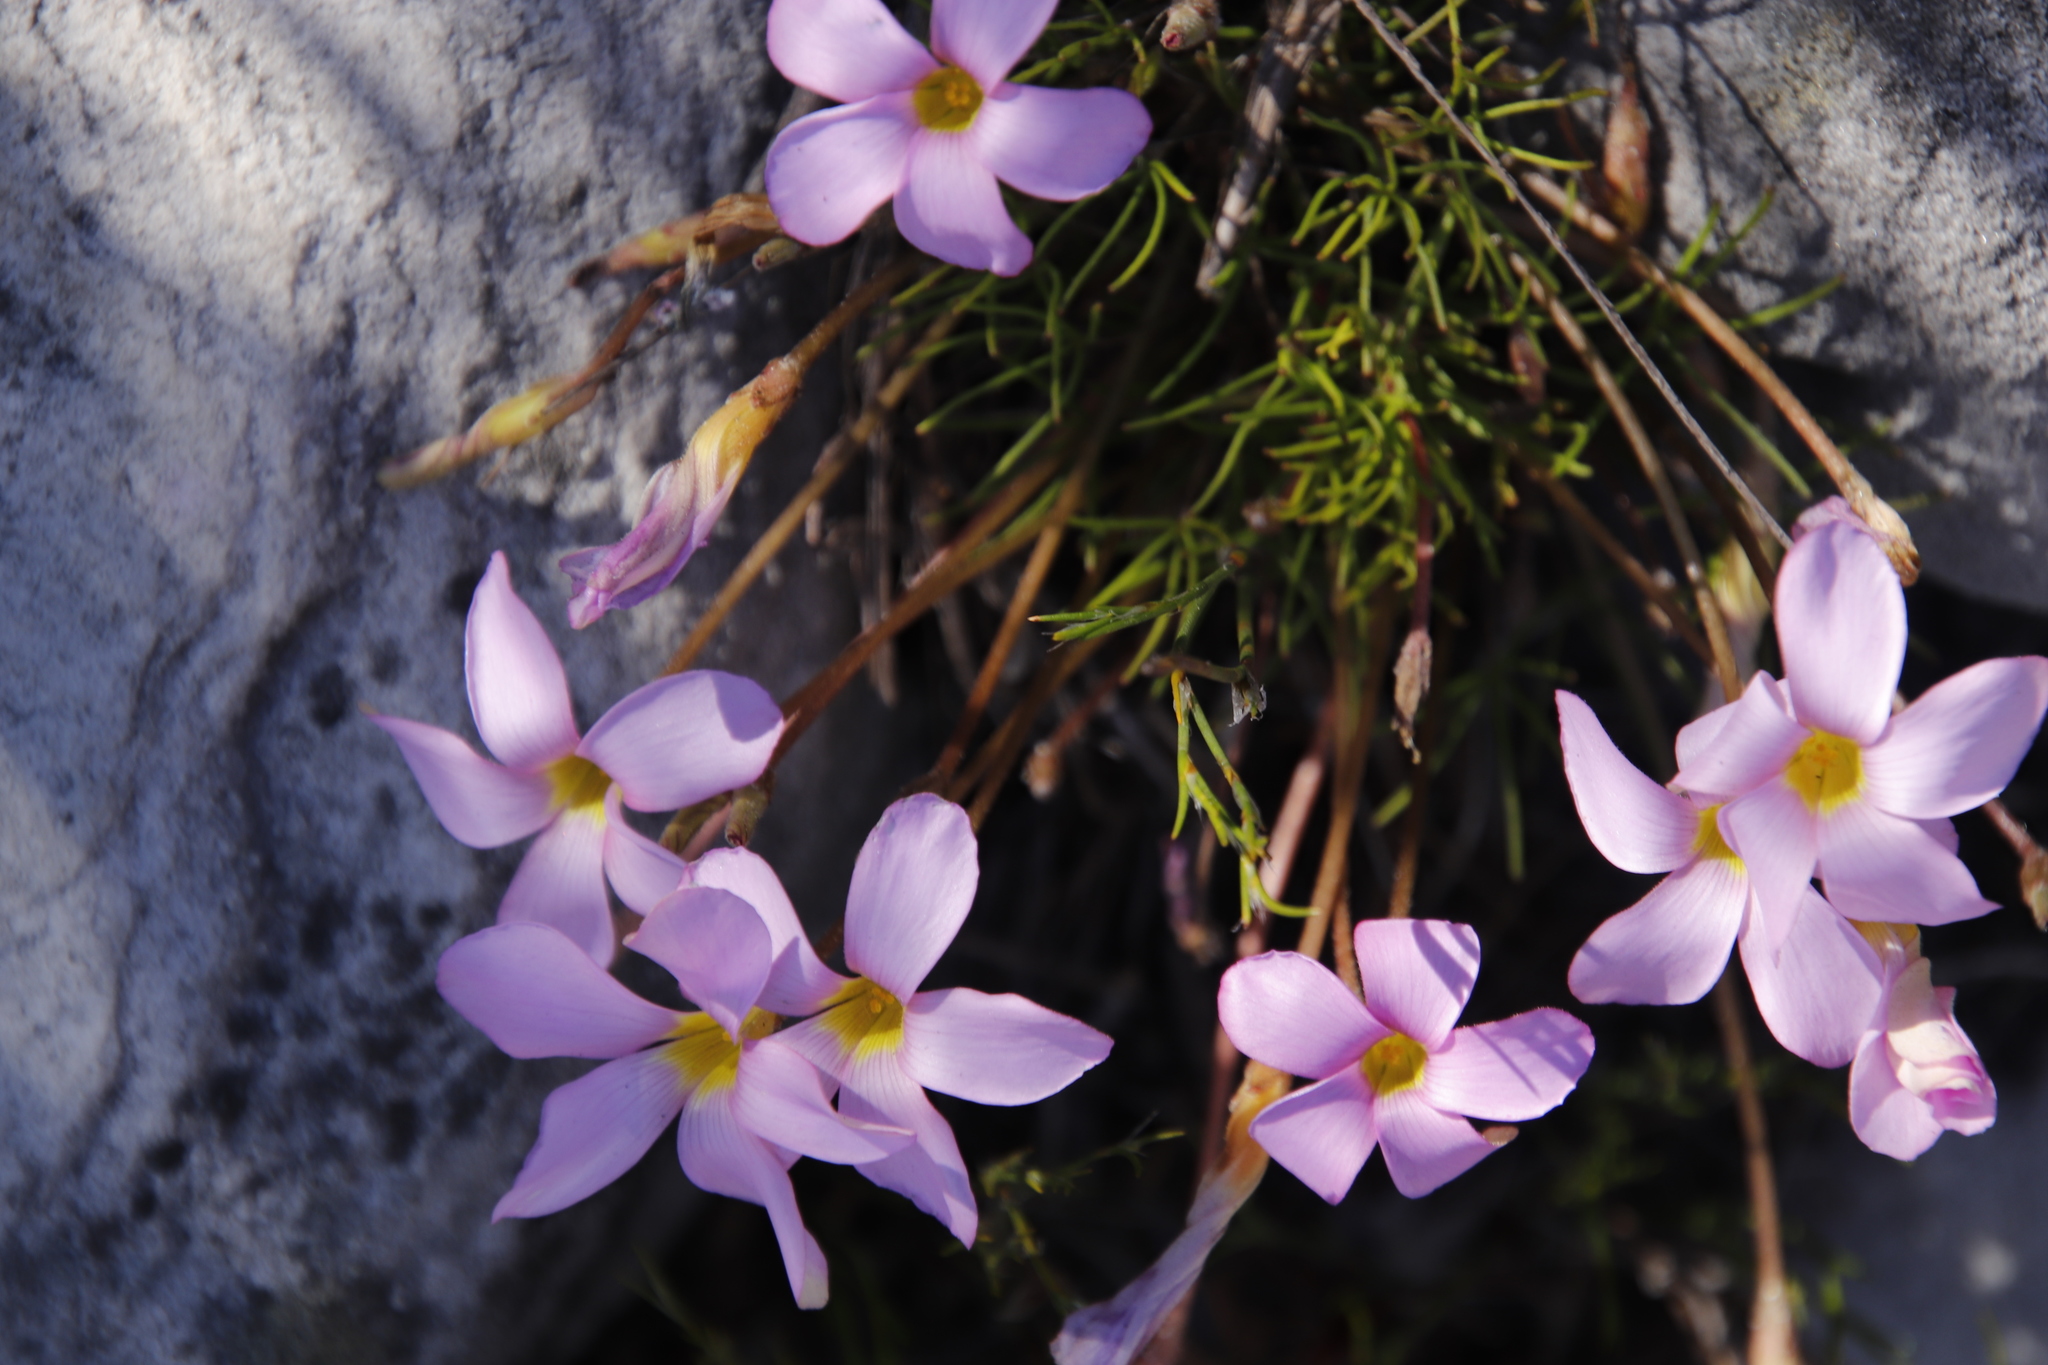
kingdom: Plantae
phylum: Tracheophyta
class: Magnoliopsida
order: Oxalidales
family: Oxalidaceae
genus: Oxalis
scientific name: Oxalis polyphylla
